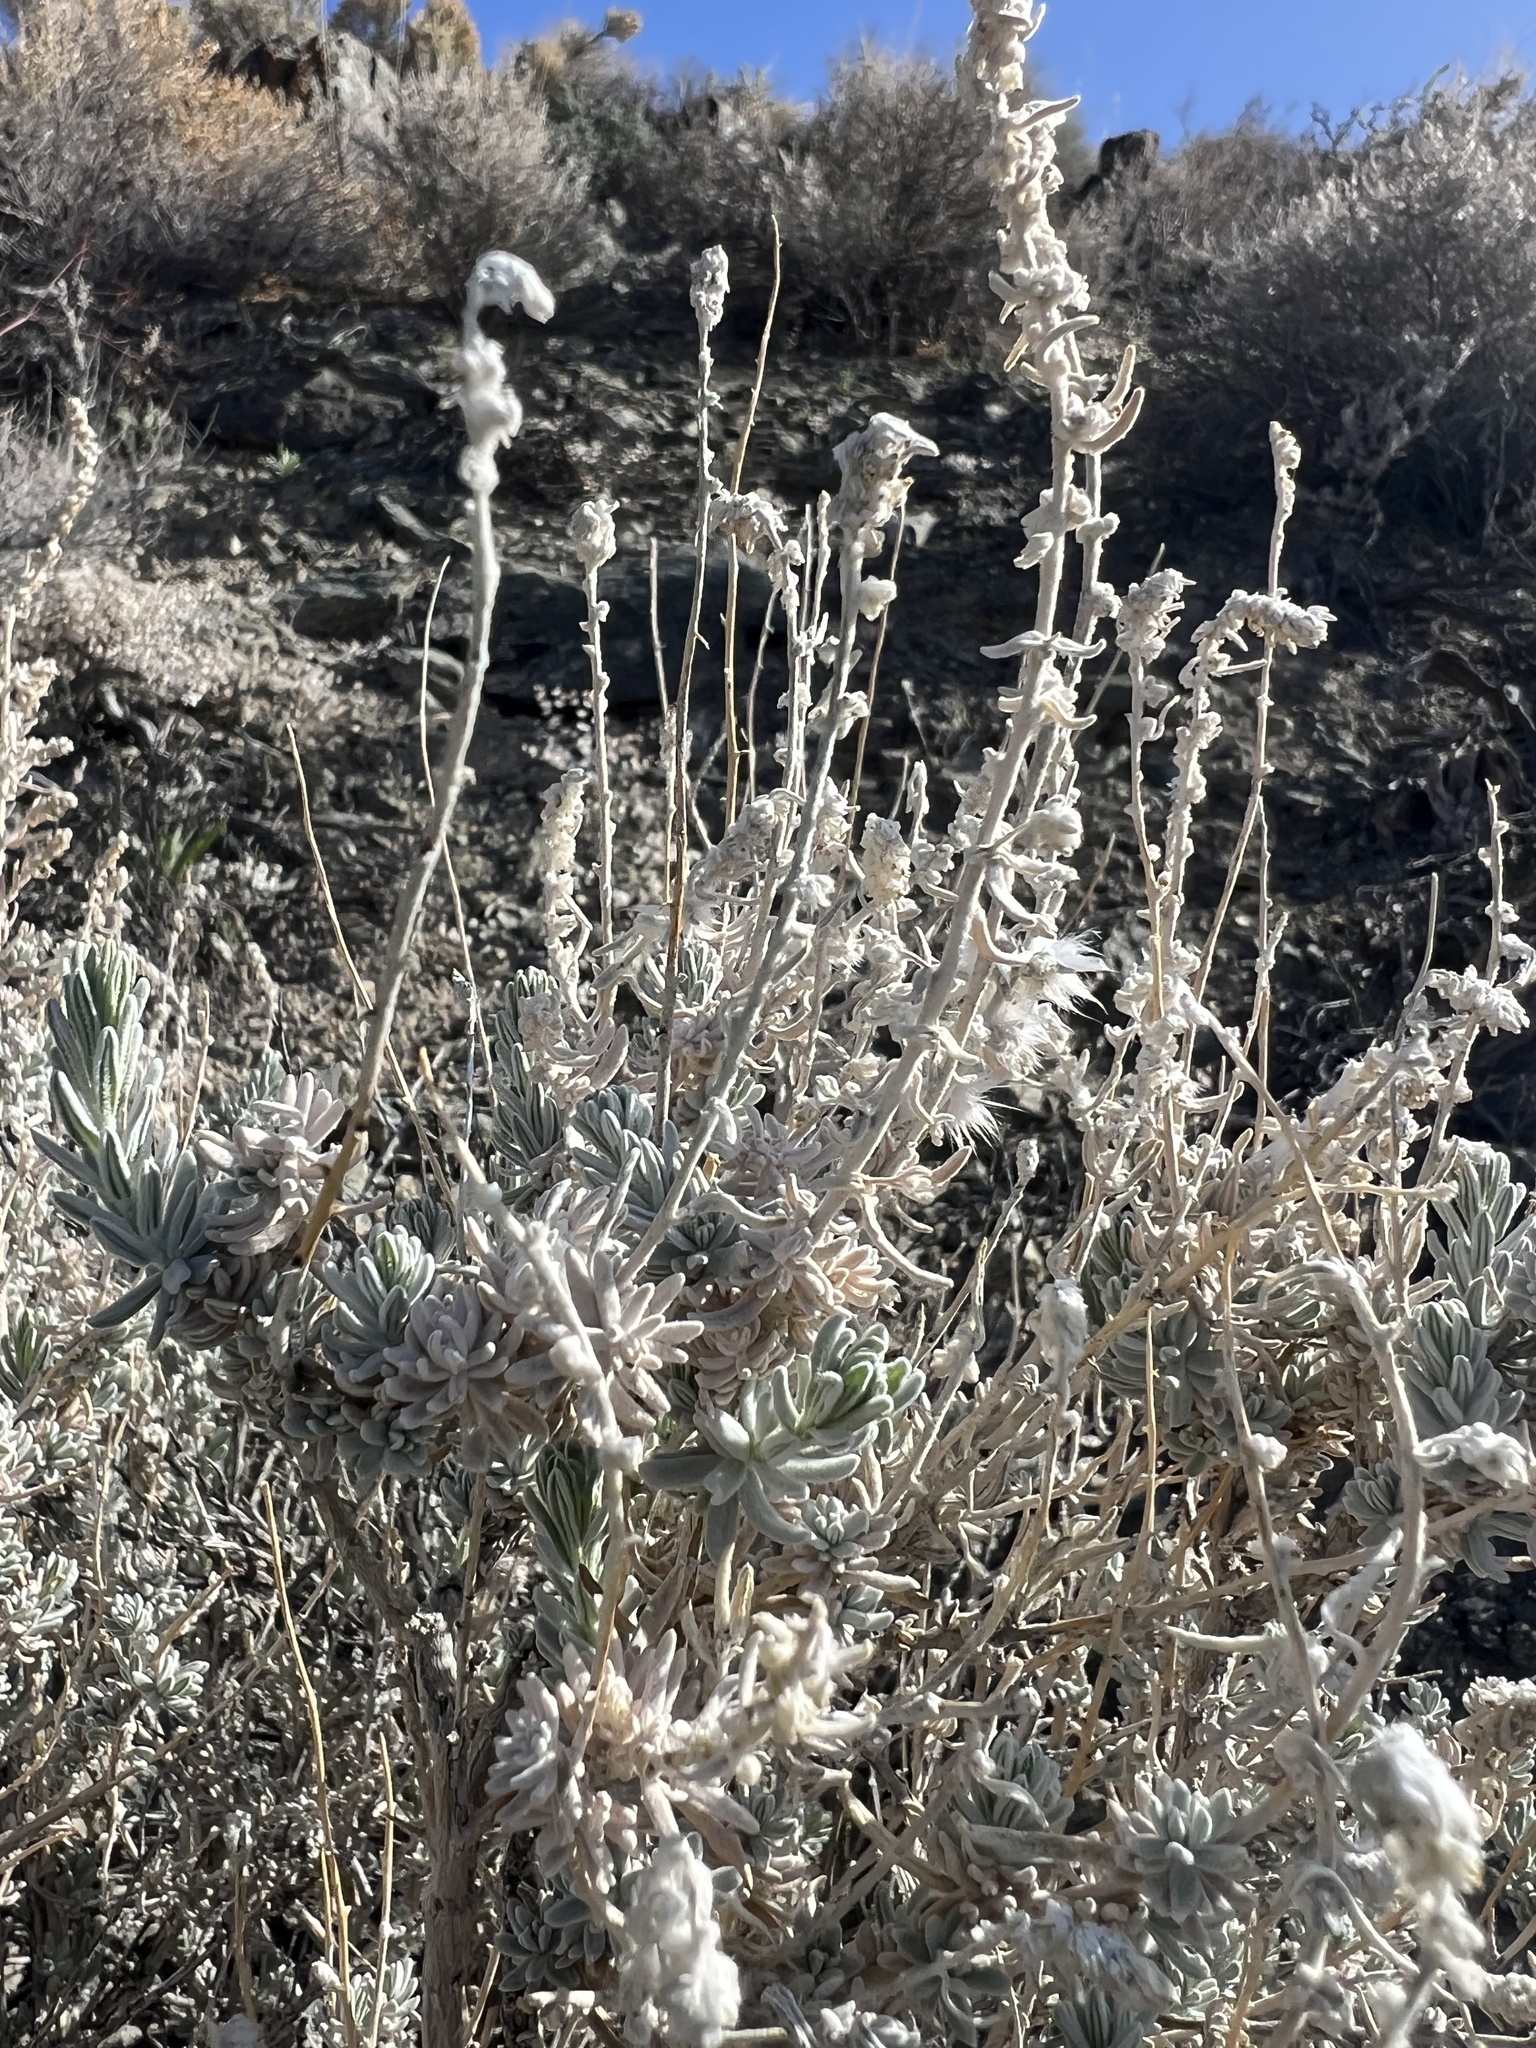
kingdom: Plantae
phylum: Tracheophyta
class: Magnoliopsida
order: Caryophyllales
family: Amaranthaceae
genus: Krascheninnikovia
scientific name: Krascheninnikovia lanata
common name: Winterfat
